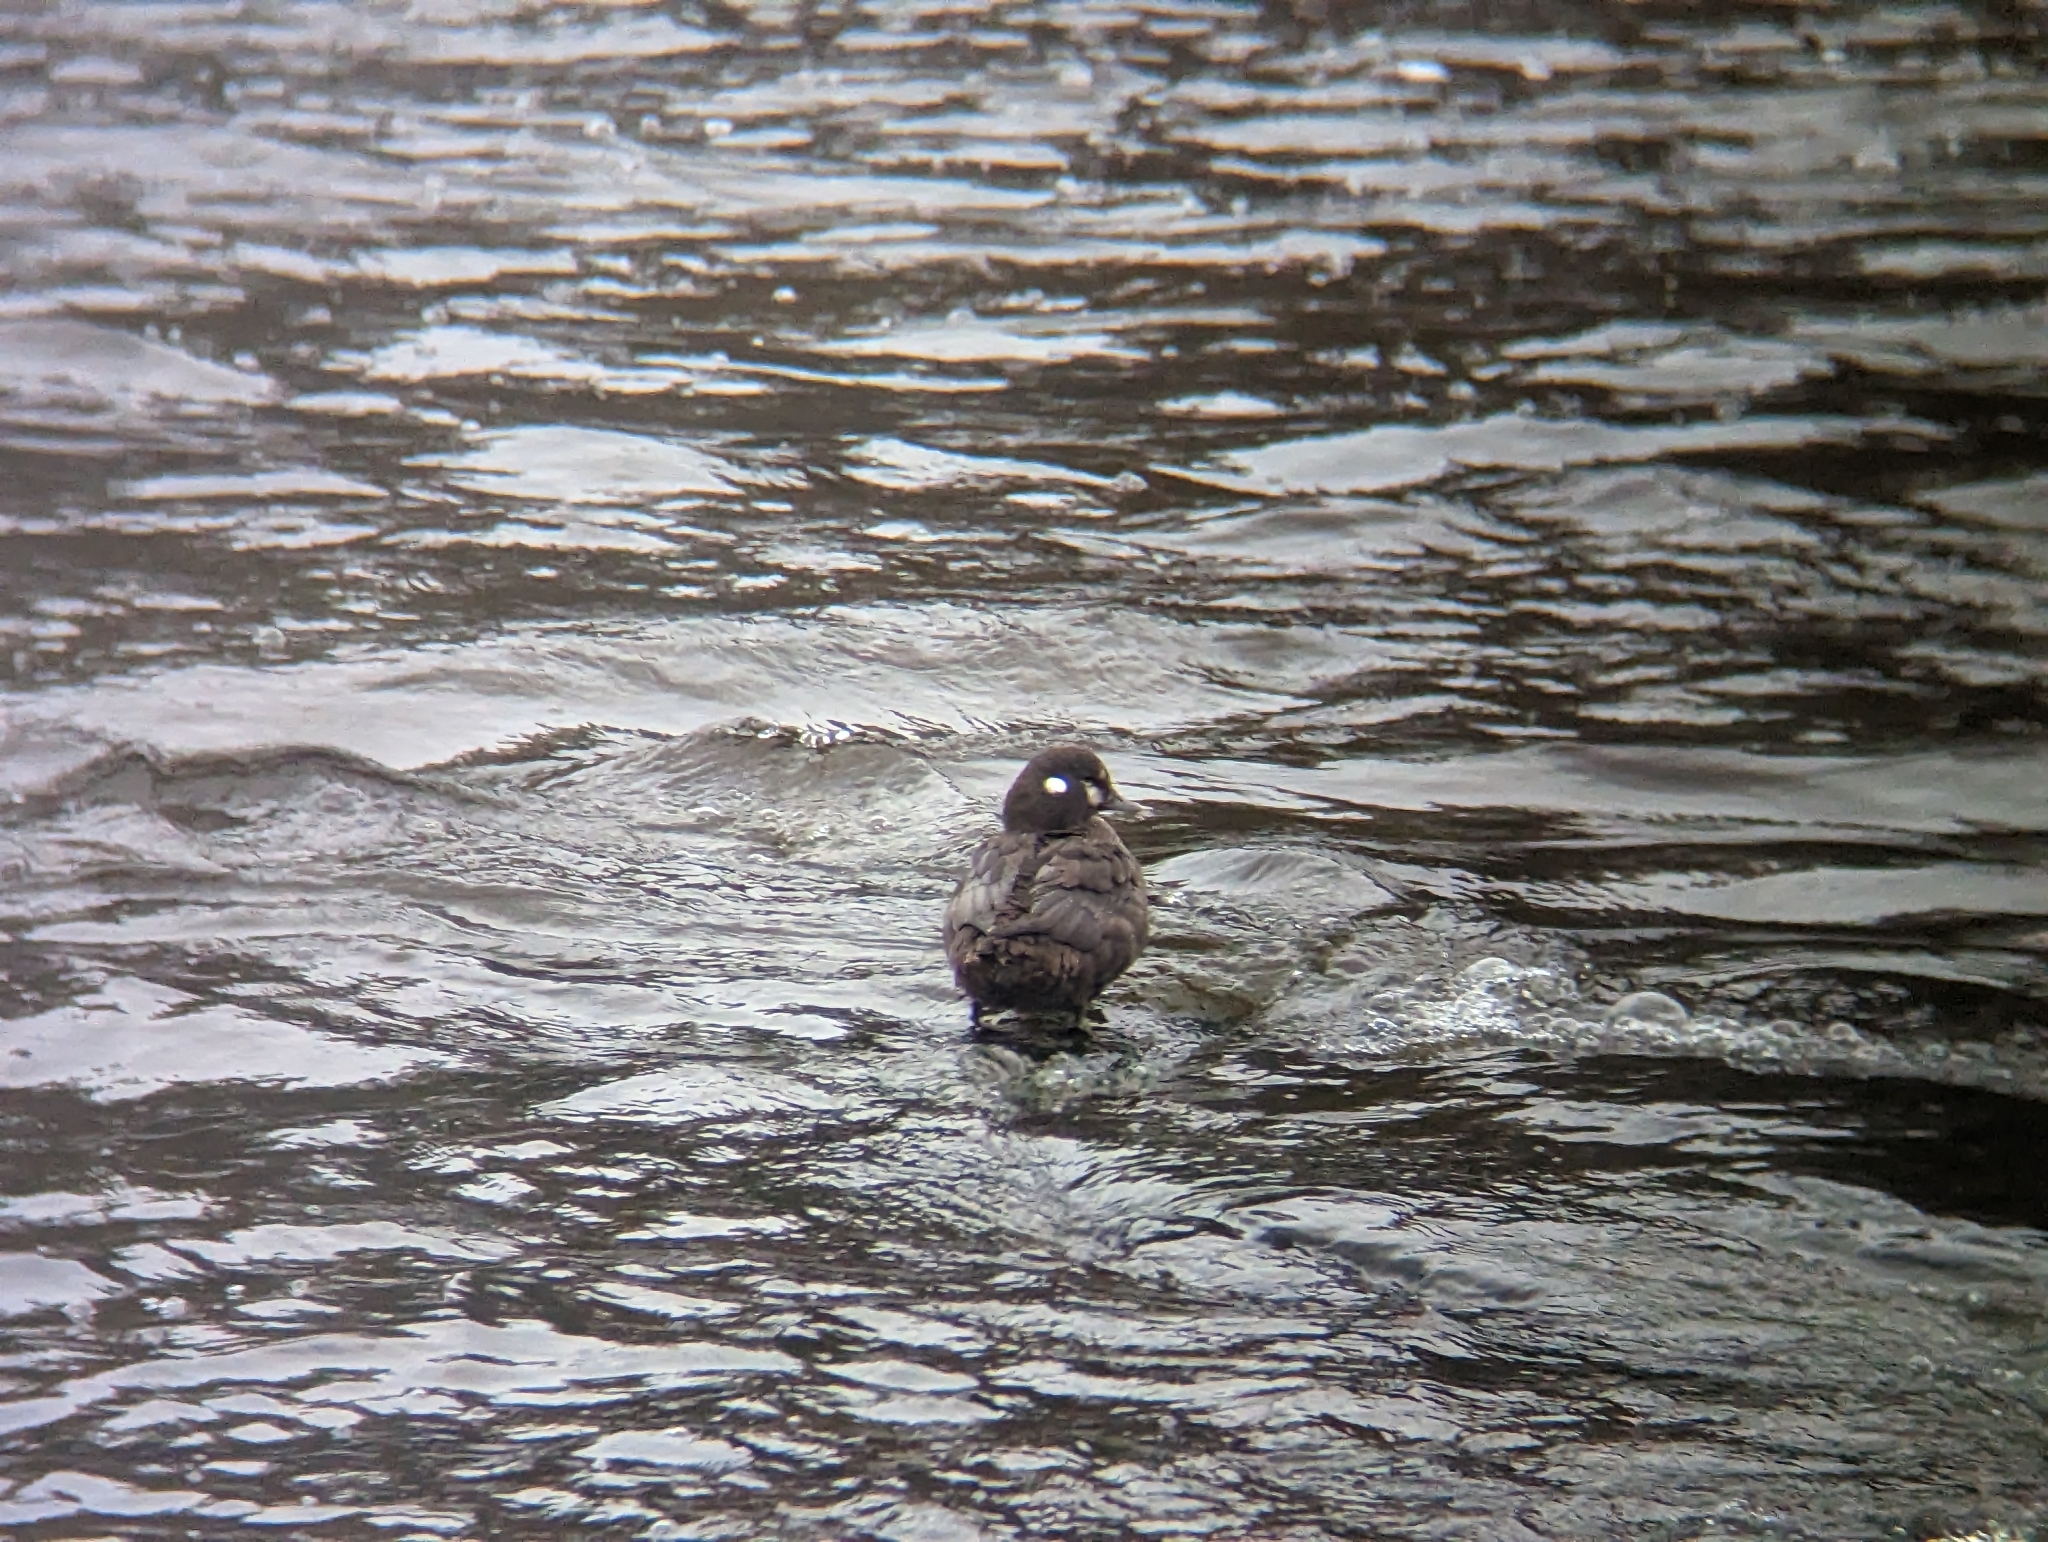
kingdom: Animalia
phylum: Chordata
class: Aves
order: Anseriformes
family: Anatidae
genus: Histrionicus
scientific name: Histrionicus histrionicus
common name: Harlequin duck
